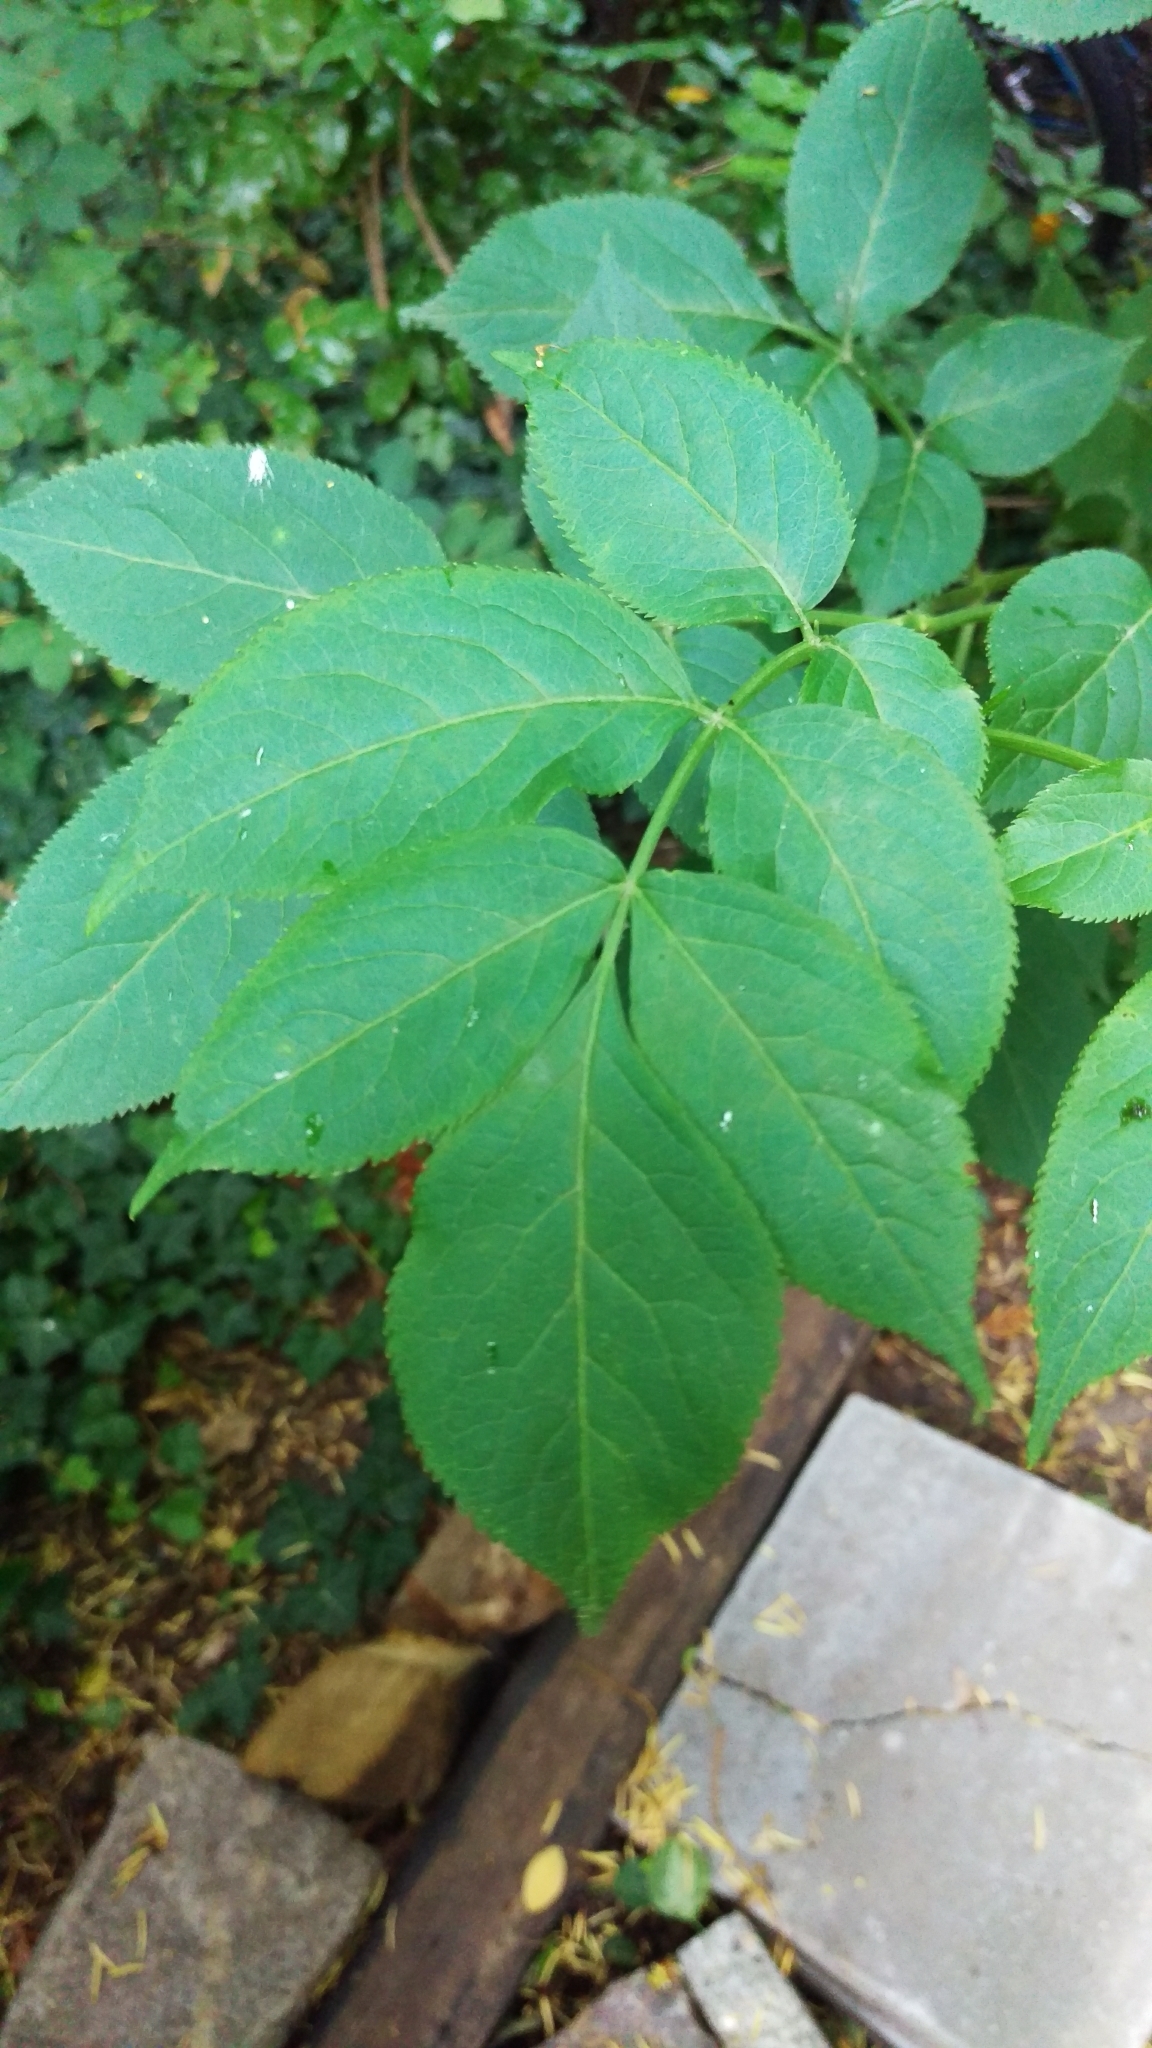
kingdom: Plantae
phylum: Tracheophyta
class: Magnoliopsida
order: Dipsacales
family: Viburnaceae
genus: Sambucus
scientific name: Sambucus nigra
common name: Elder
